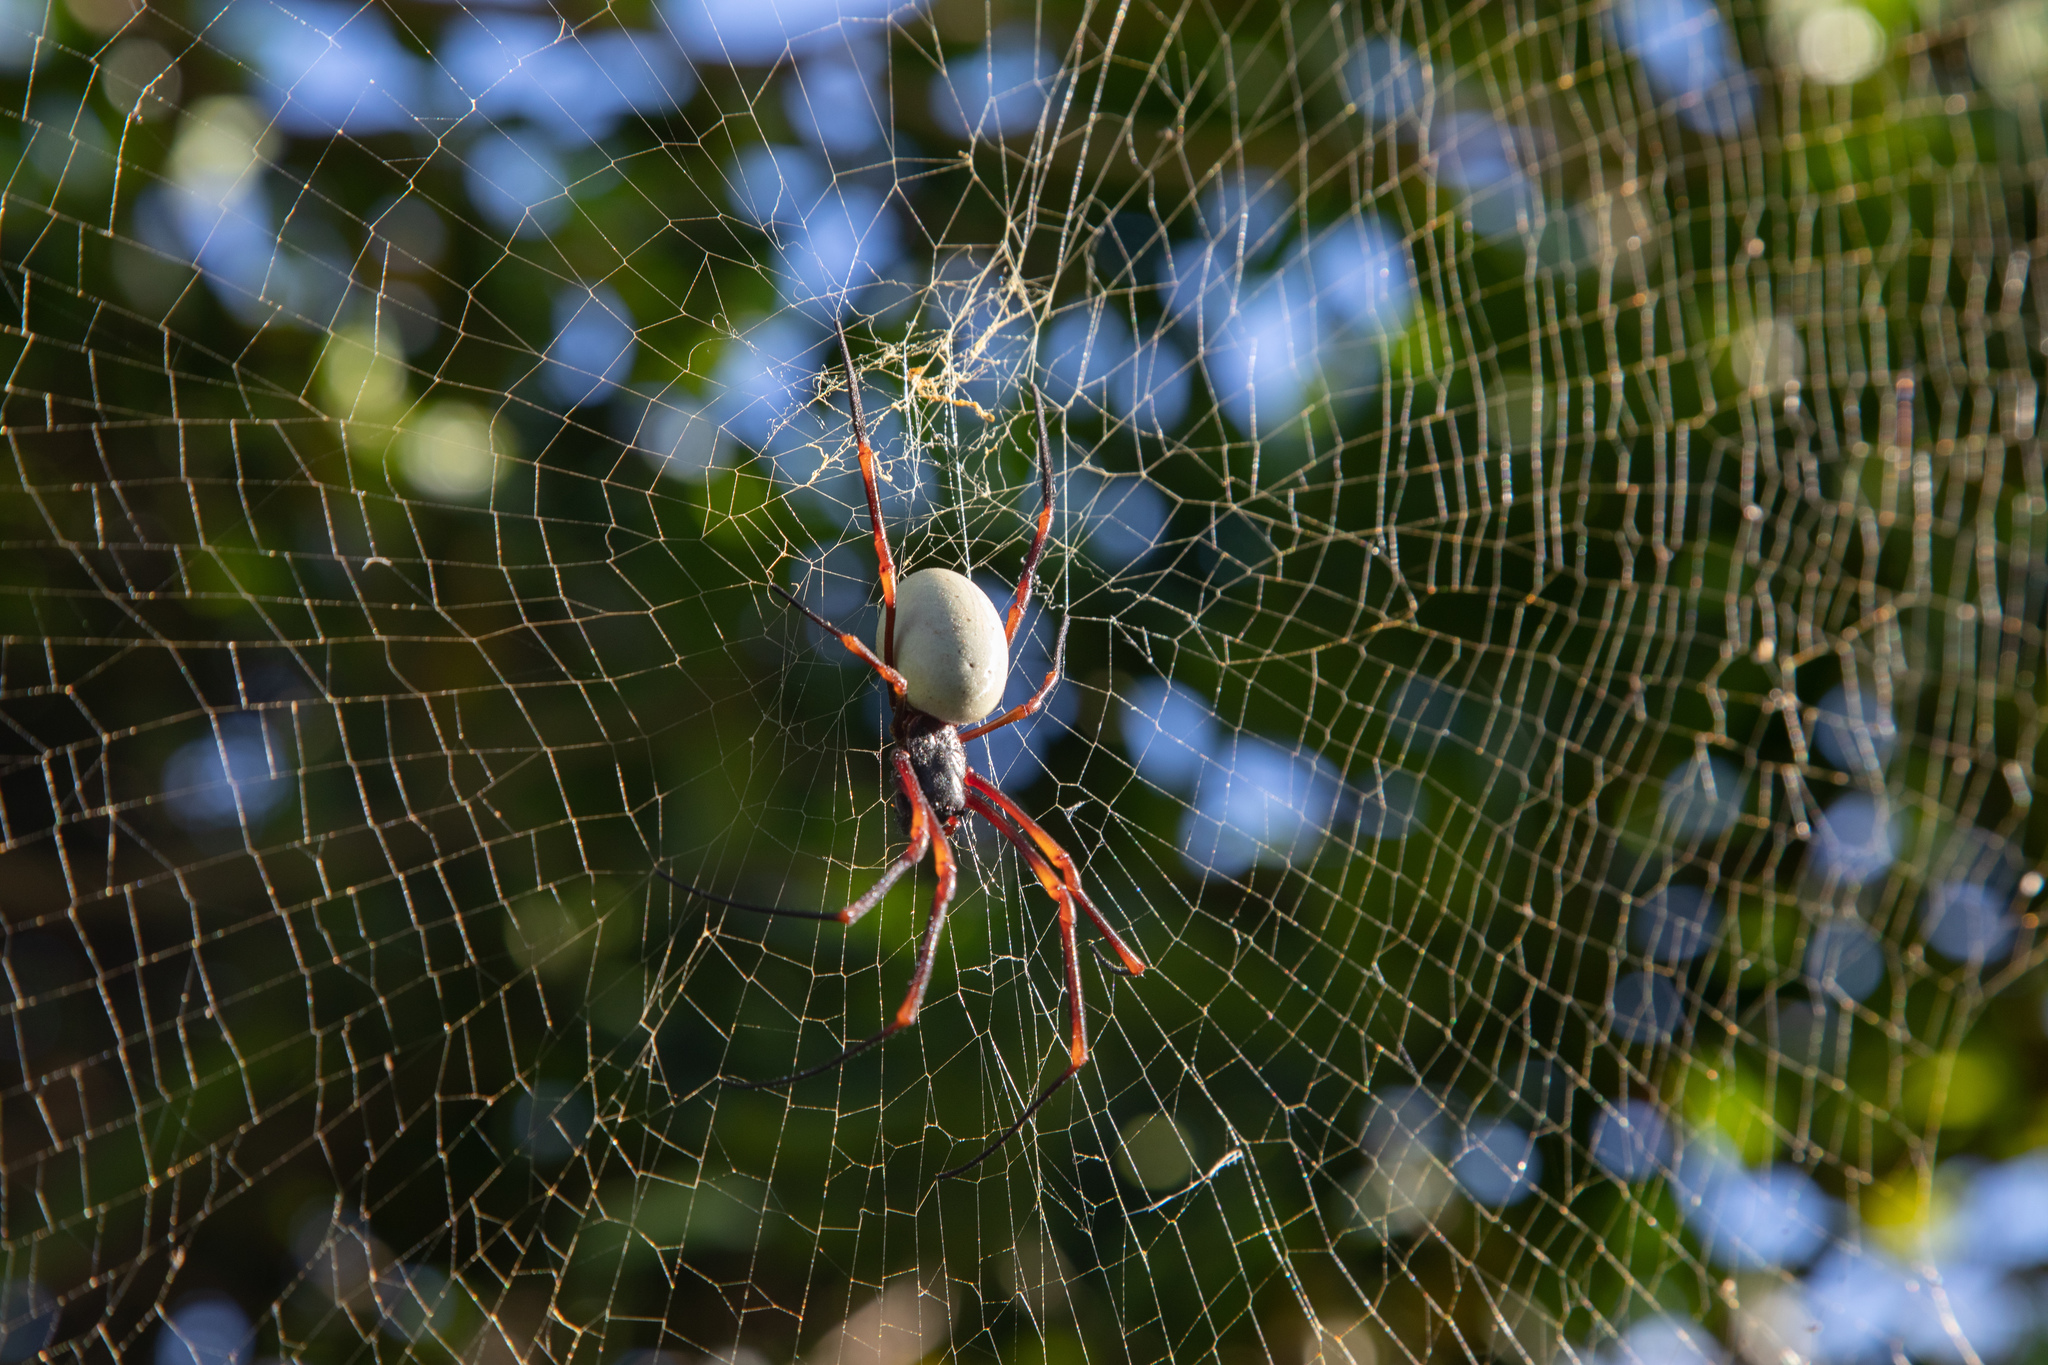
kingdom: Animalia
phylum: Arthropoda
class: Arachnida
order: Araneae
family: Araneidae
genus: Nephila
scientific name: Nephila tetragnathoides
